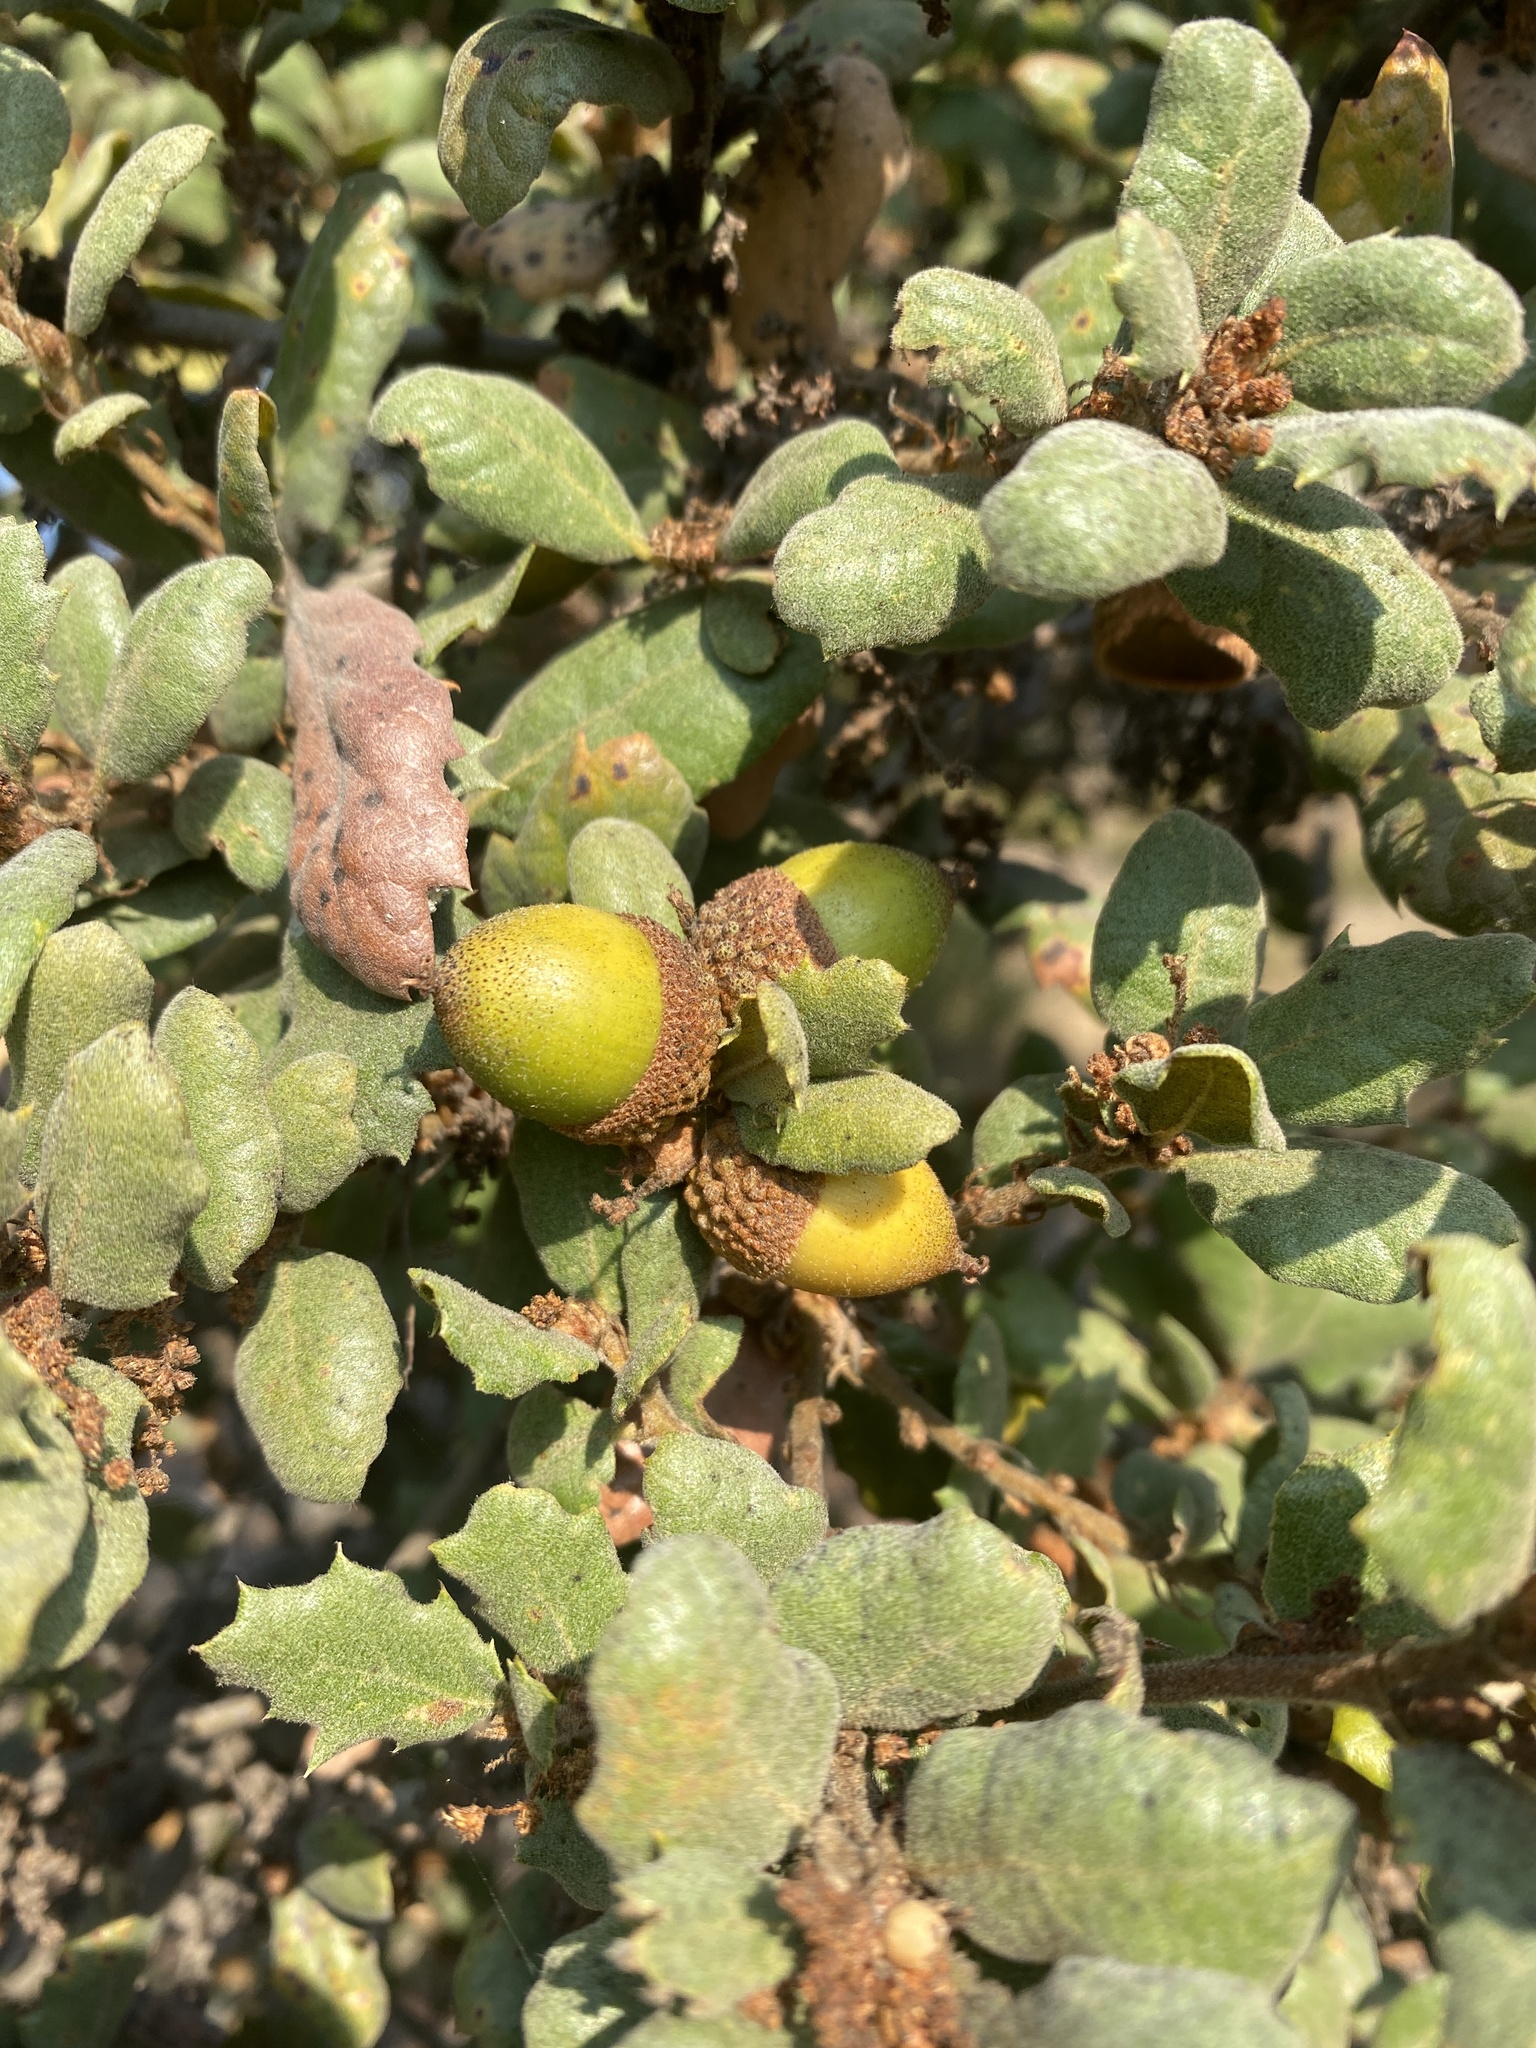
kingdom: Plantae
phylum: Tracheophyta
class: Magnoliopsida
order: Fagales
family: Fagaceae
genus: Quercus
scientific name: Quercus durata
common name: Leather oak
